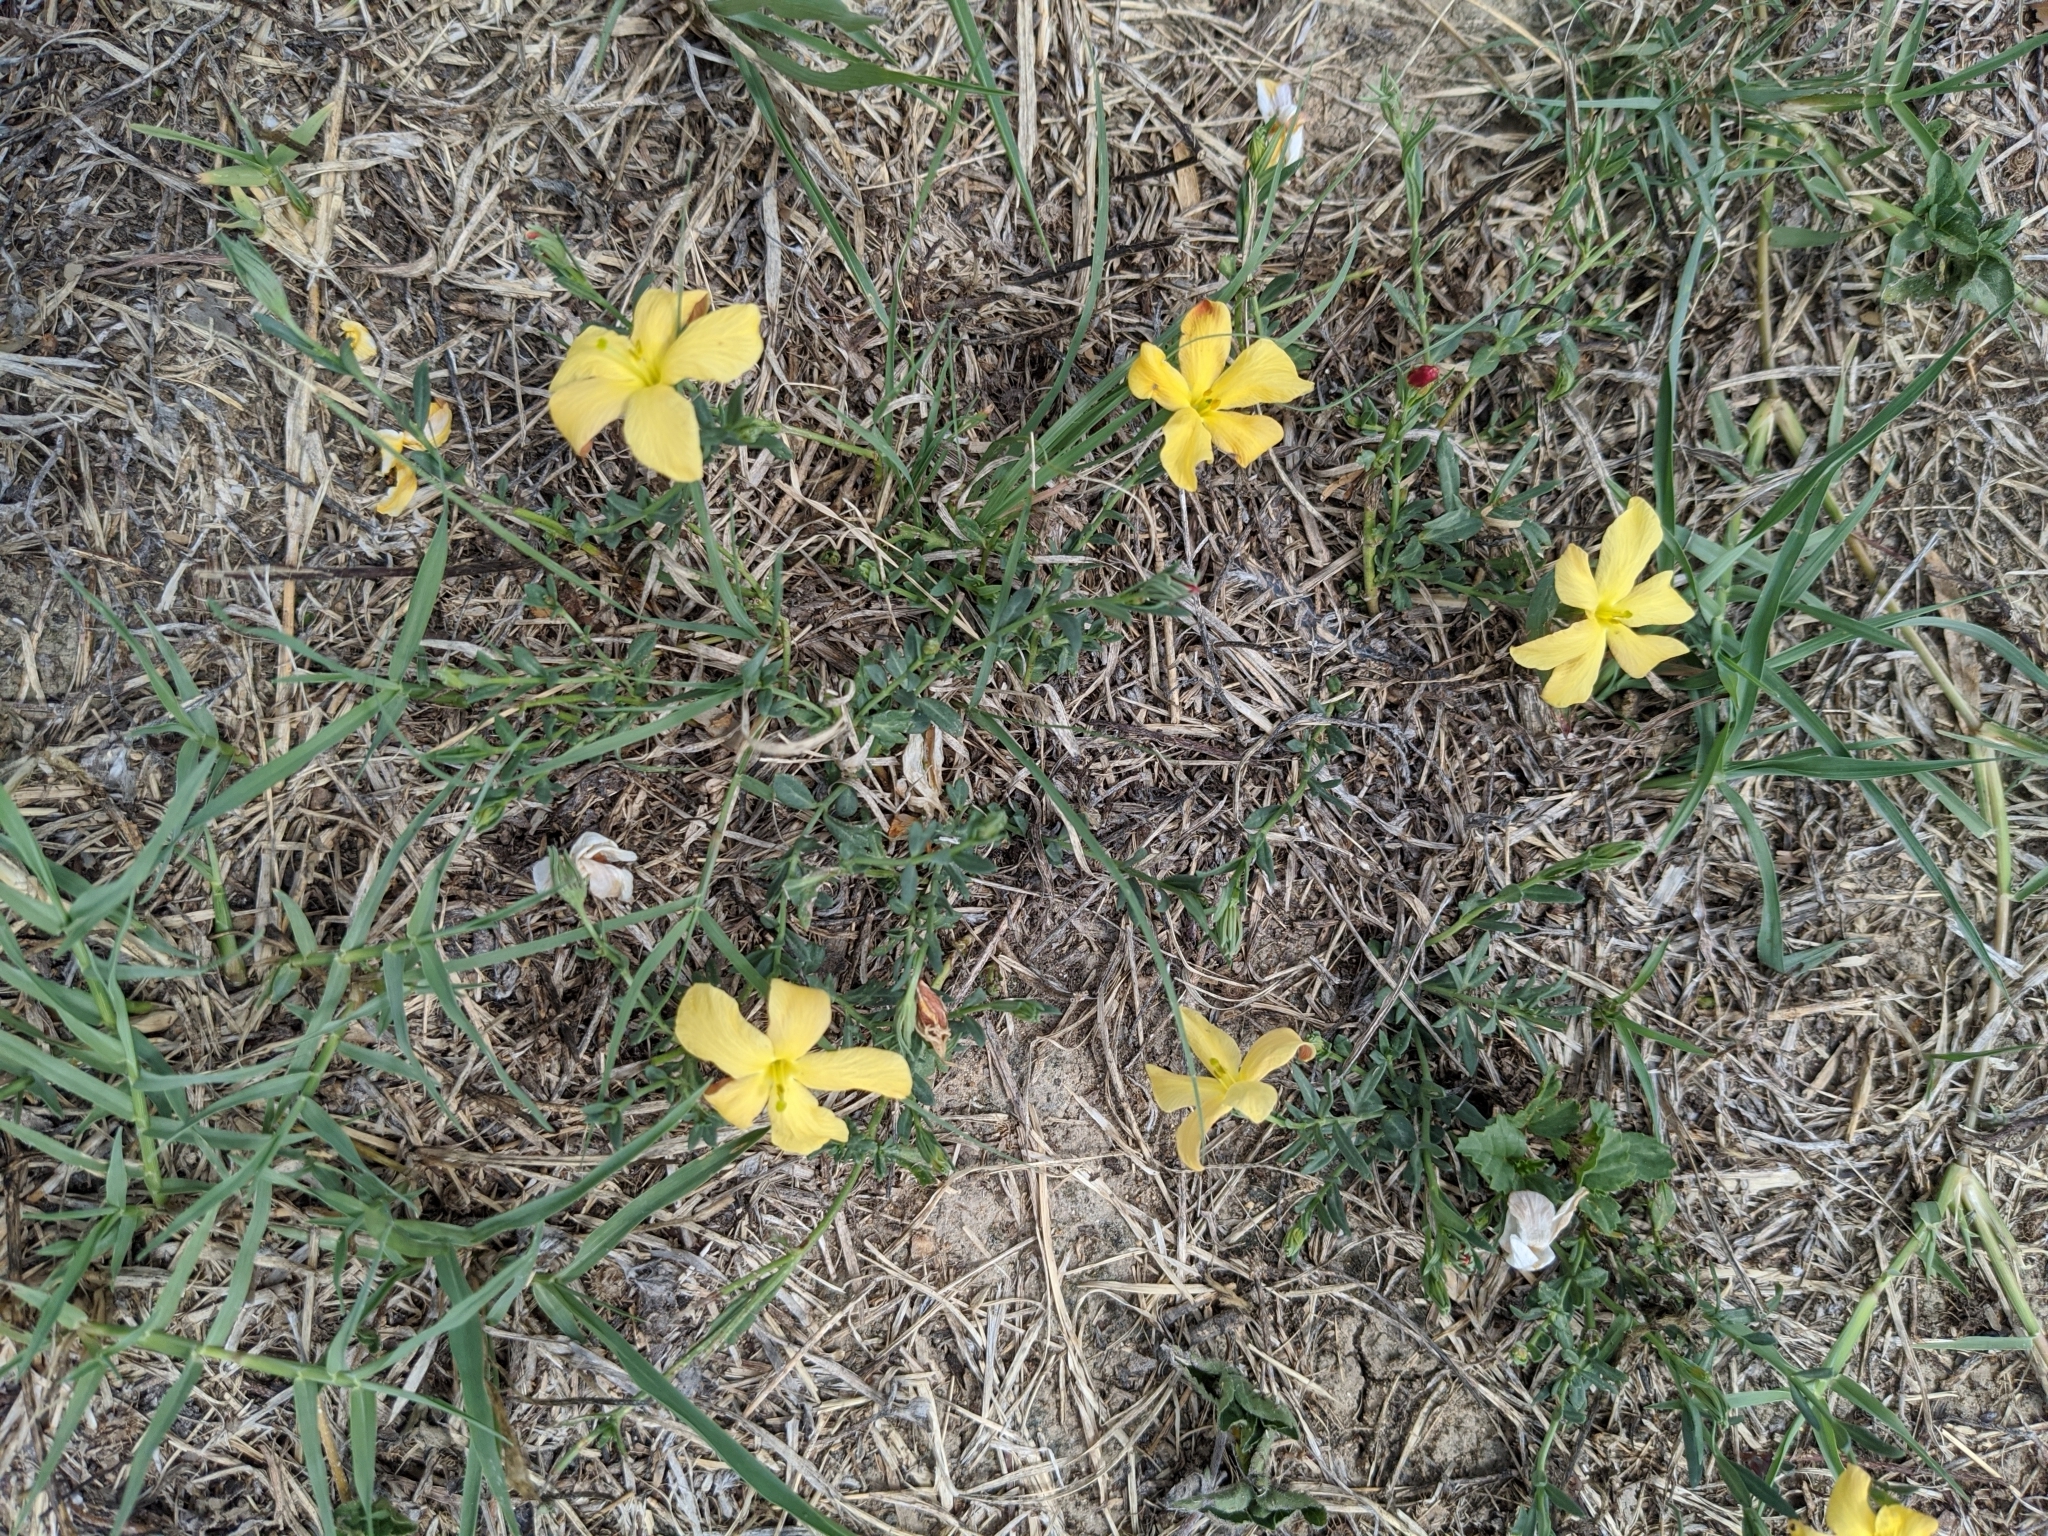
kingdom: Plantae
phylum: Tracheophyta
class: Magnoliopsida
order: Lamiales
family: Oleaceae
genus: Menodora
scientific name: Menodora heterophylla
